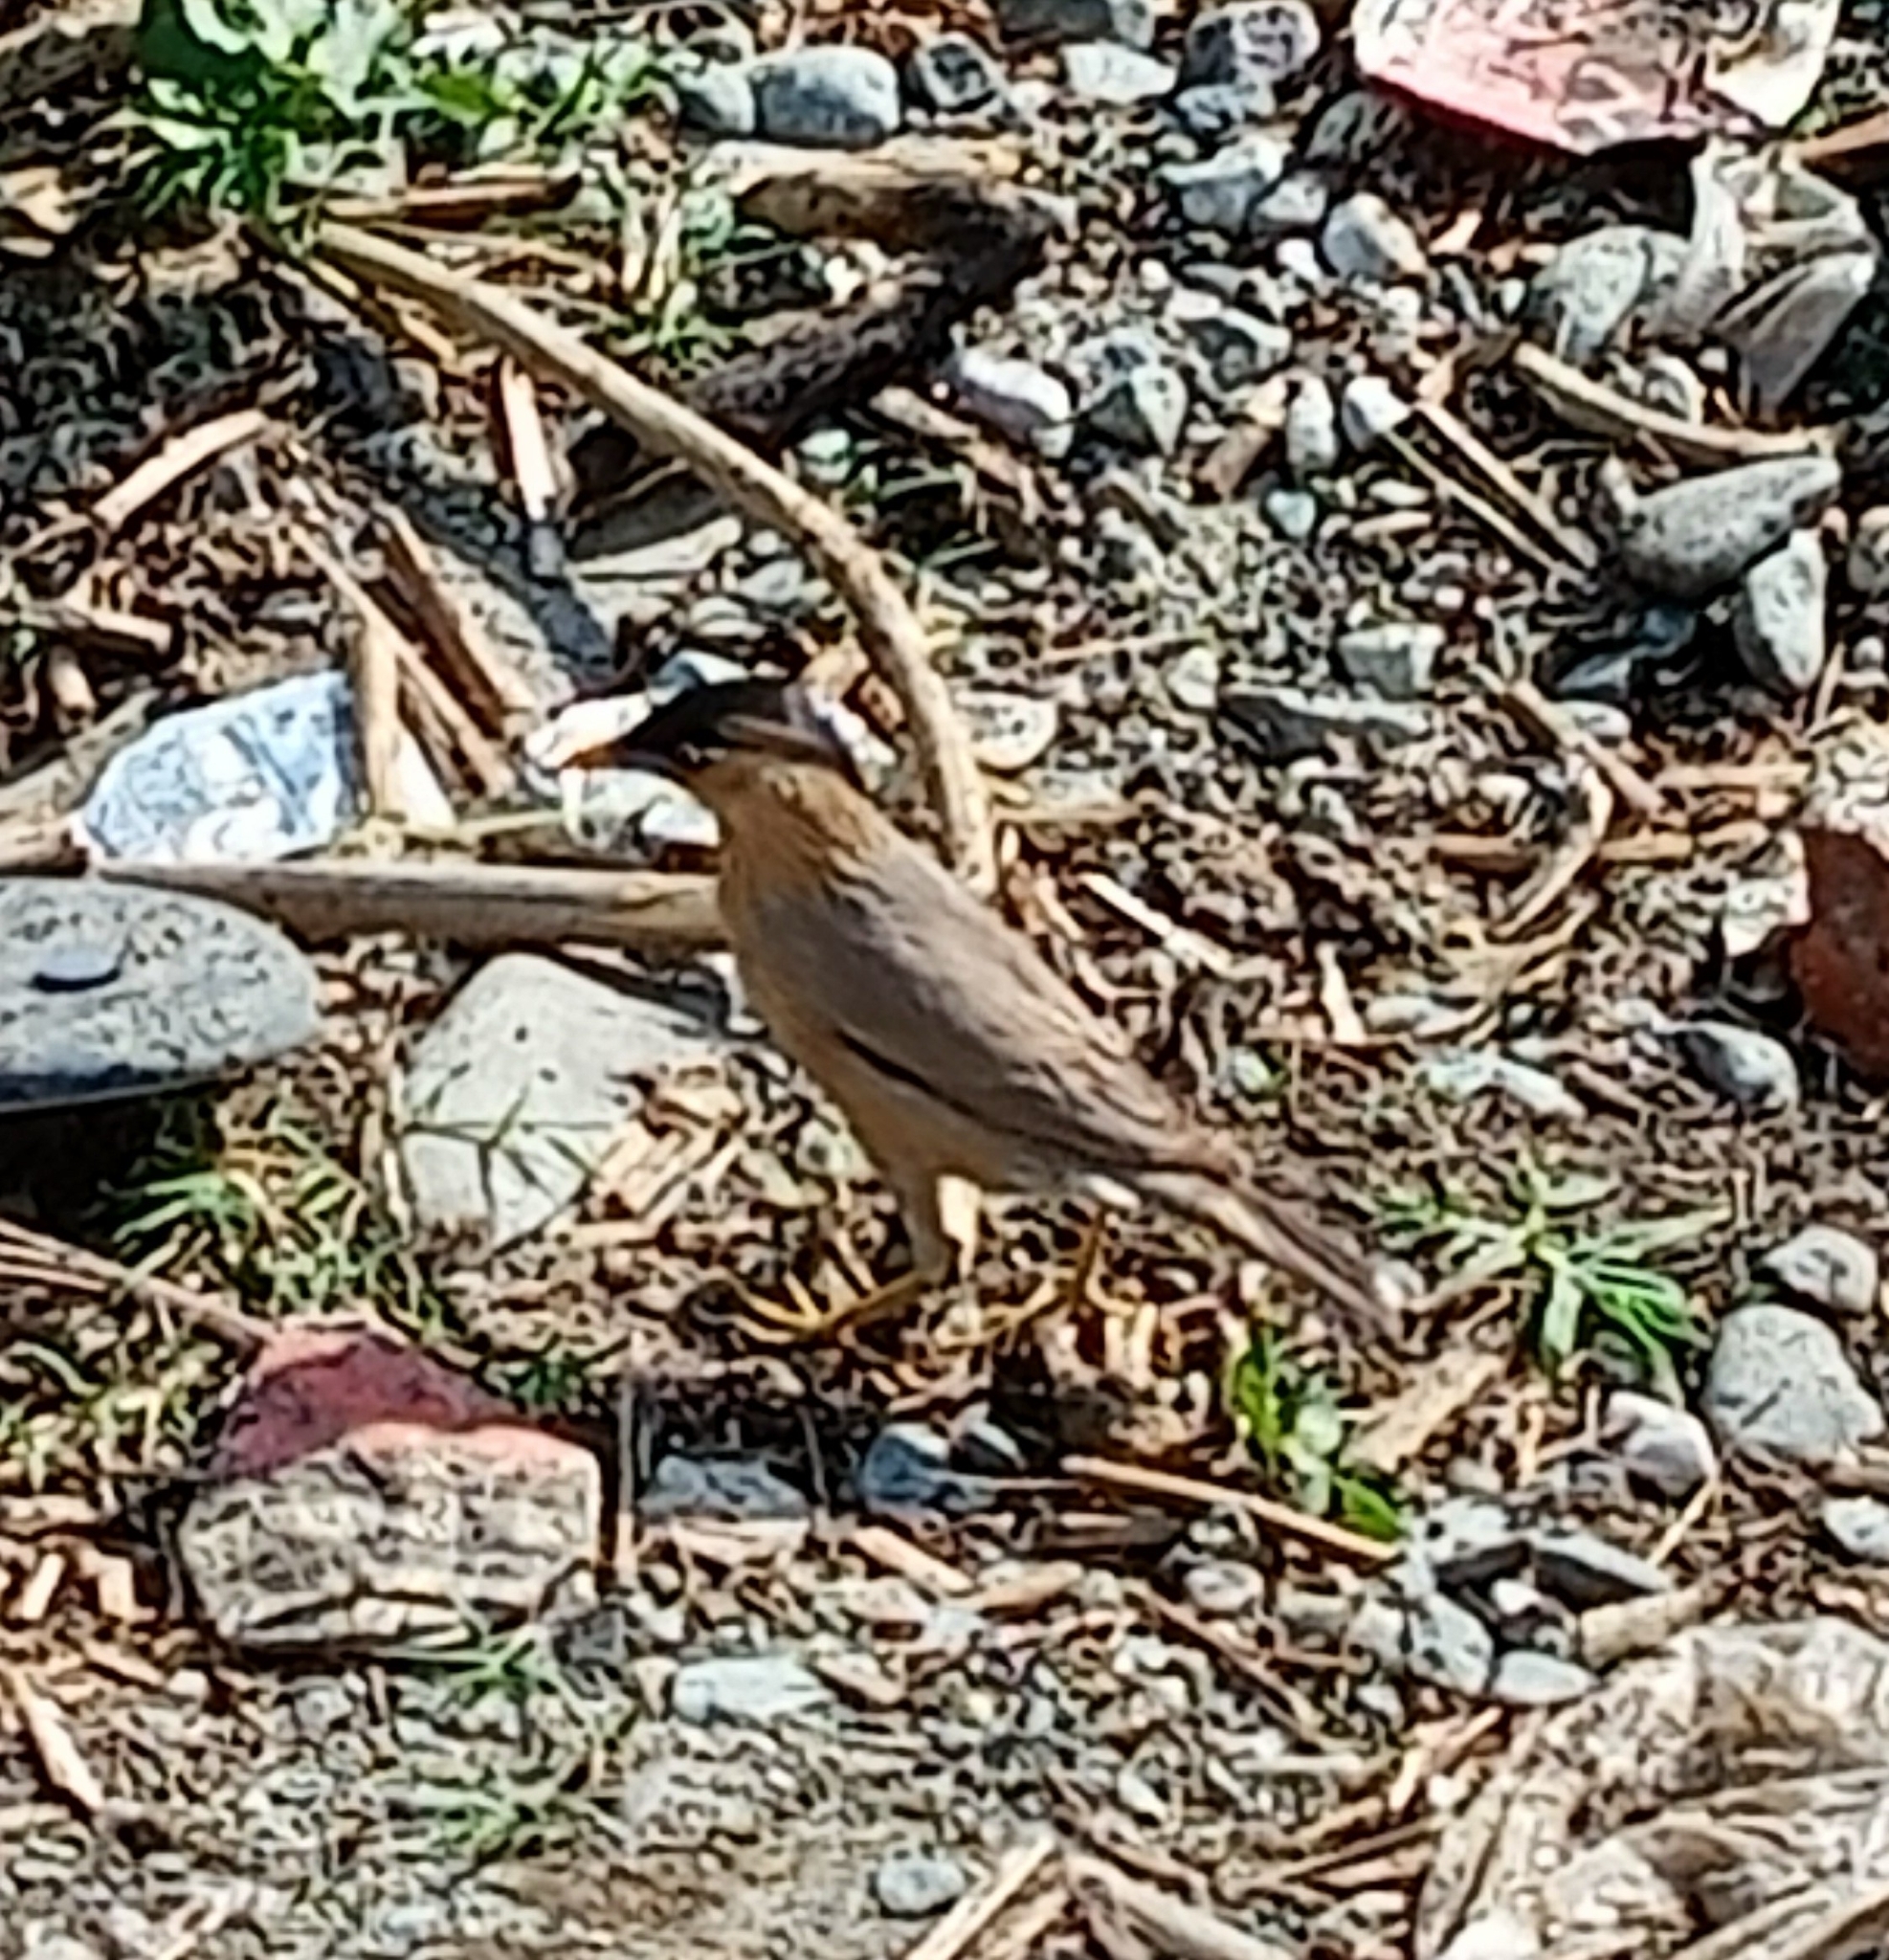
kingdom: Animalia
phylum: Chordata
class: Aves
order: Passeriformes
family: Sturnidae
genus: Sturnia
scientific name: Sturnia pagodarum
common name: Brahminy starling
